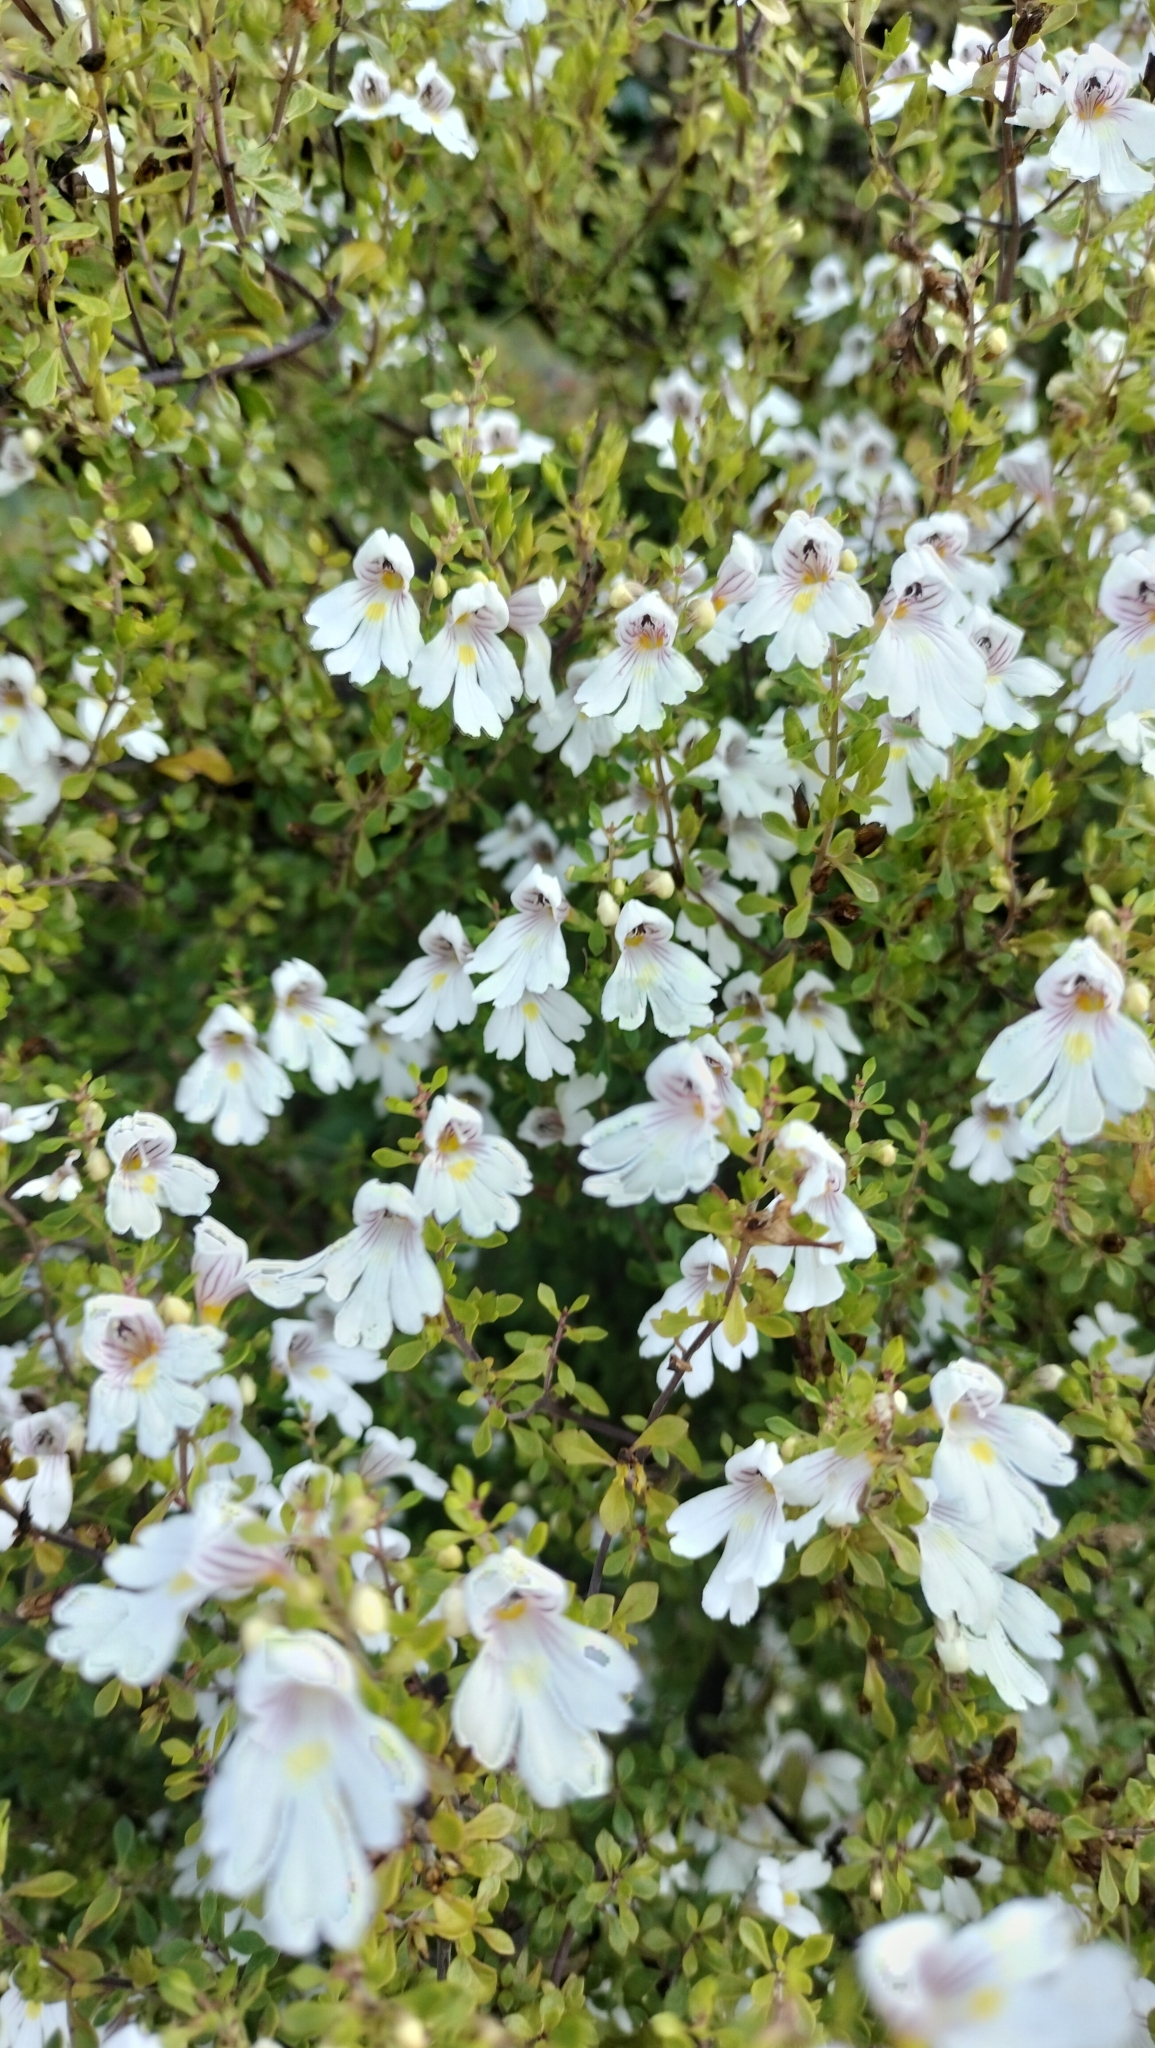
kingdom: Plantae
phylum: Tracheophyta
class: Magnoliopsida
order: Lamiales
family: Orobanchaceae
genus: Euphrasia
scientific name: Euphrasia cuneata
